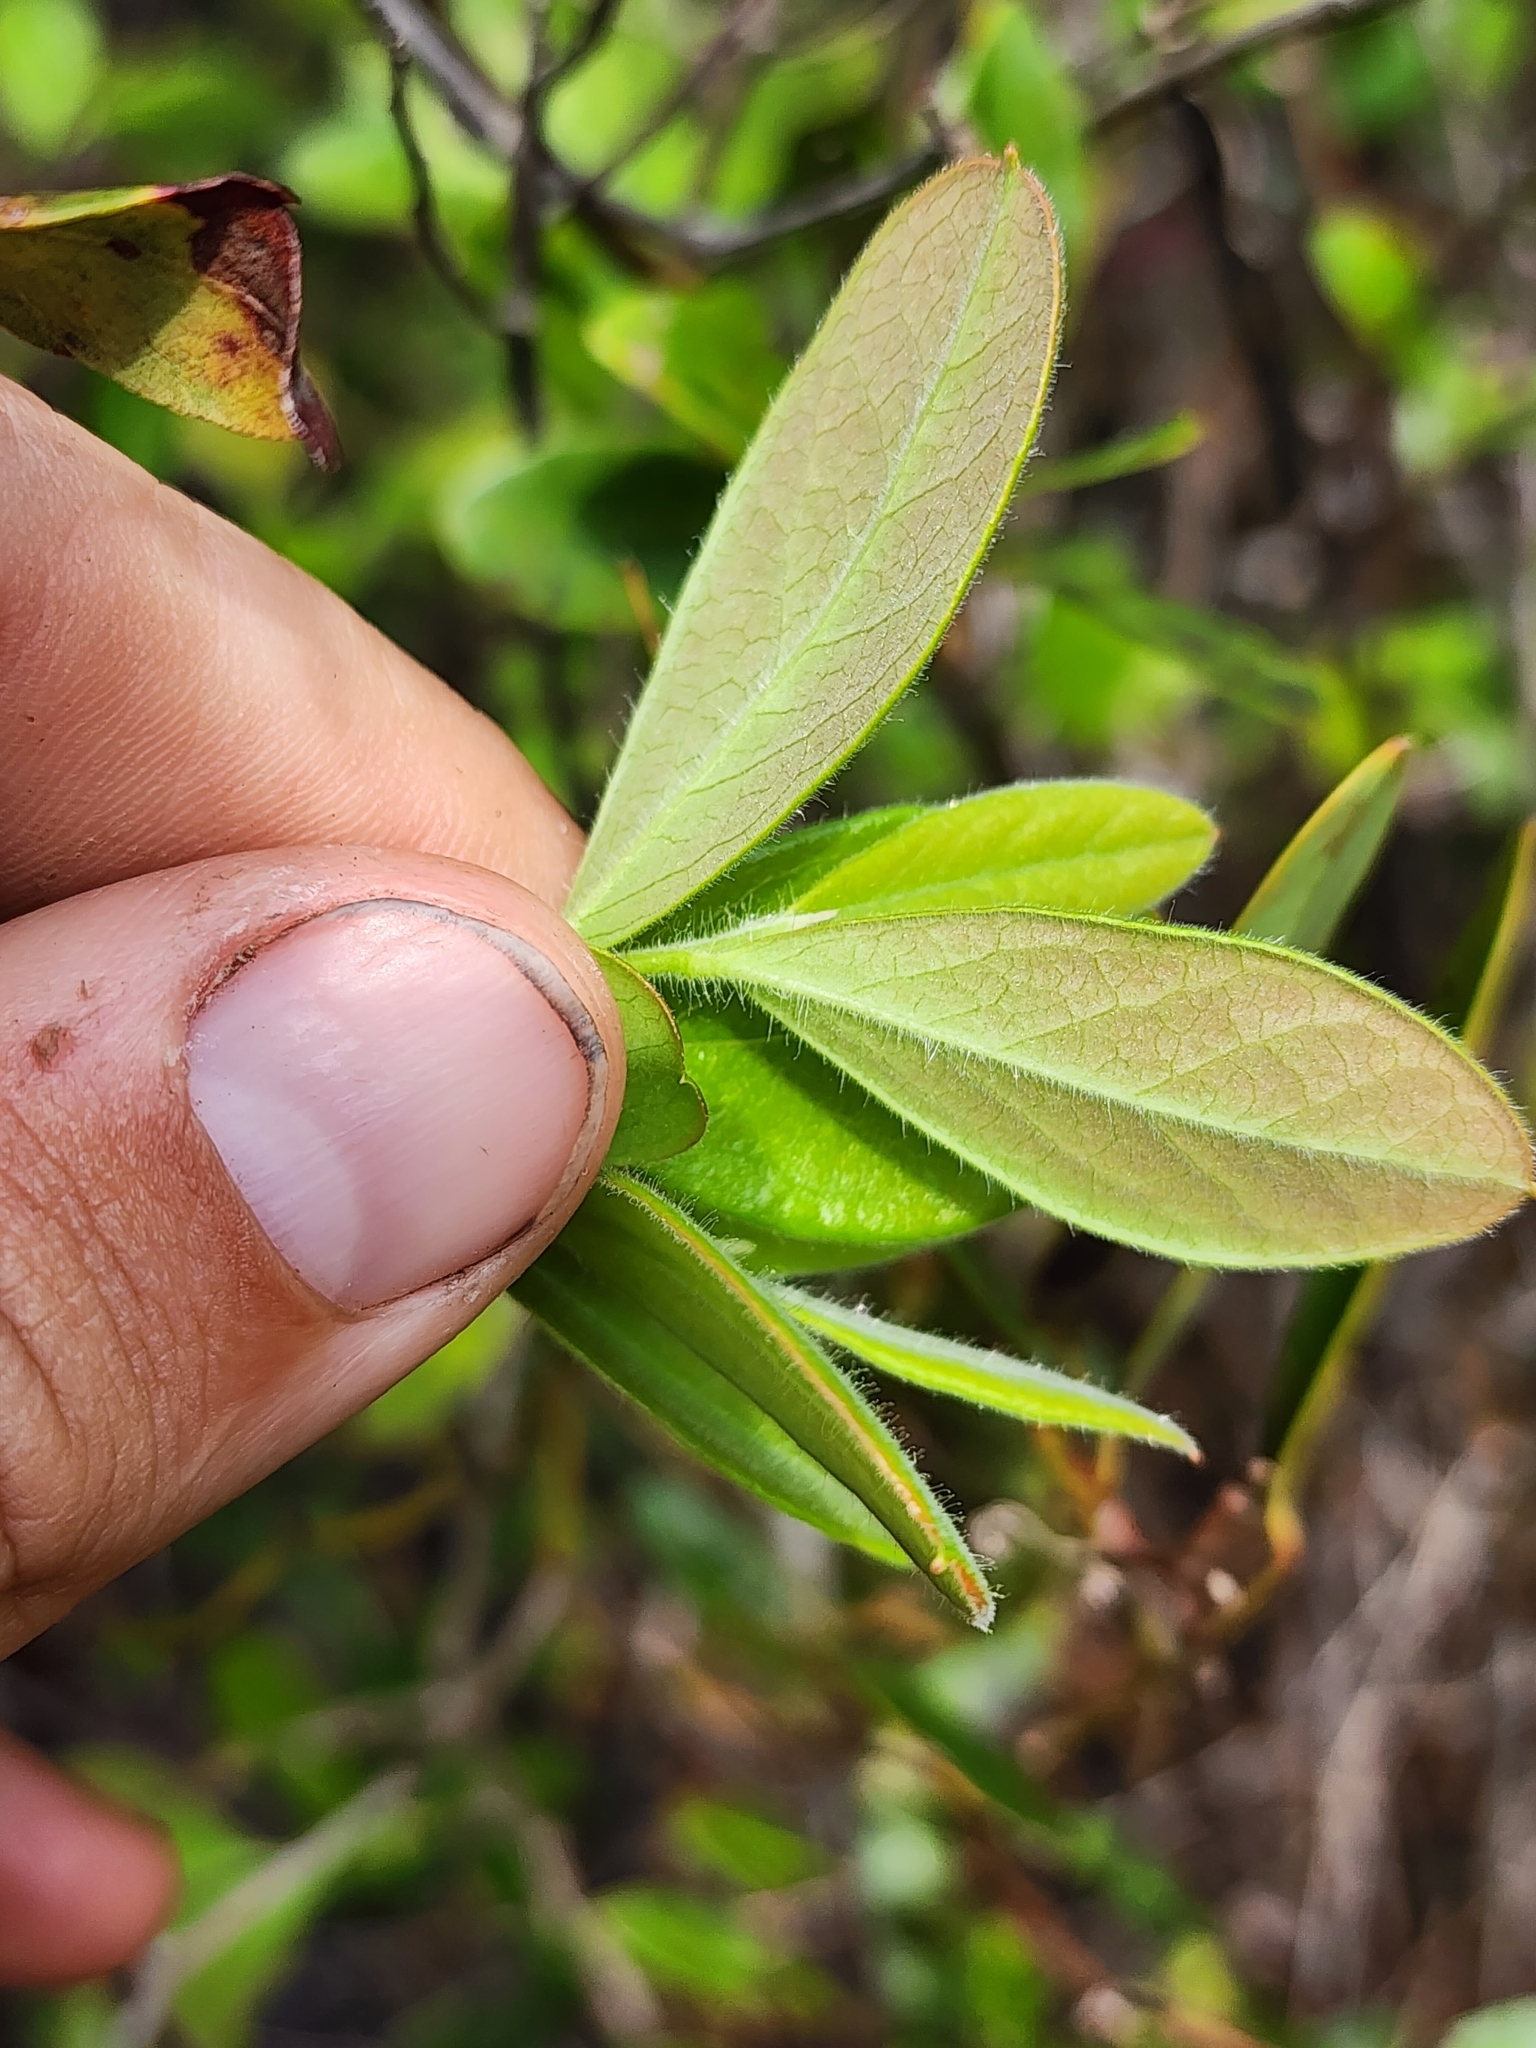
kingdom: Plantae
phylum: Tracheophyta
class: Magnoliopsida
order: Ericales
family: Ericaceae
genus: Gaylussacia
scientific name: Gaylussacia mosieri
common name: Hirsute huckleberry
